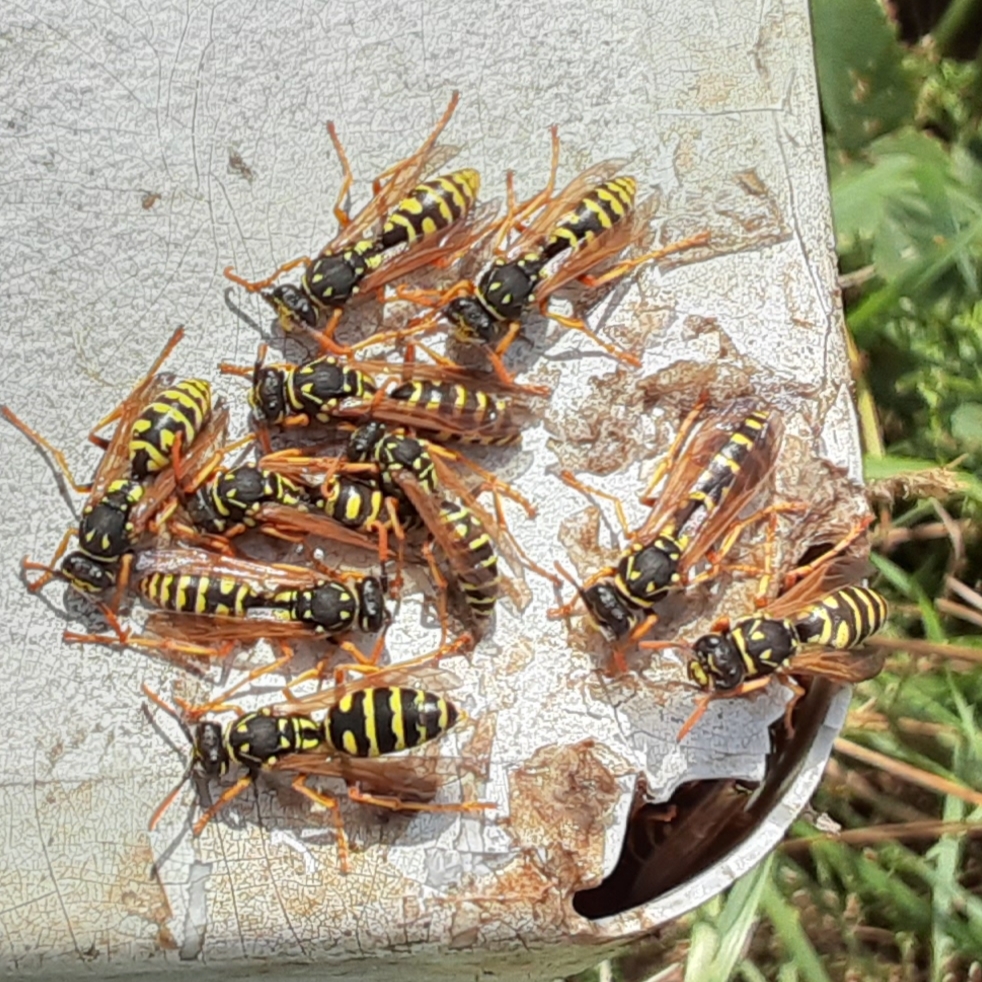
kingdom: Animalia
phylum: Arthropoda
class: Insecta
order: Hymenoptera
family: Eumenidae
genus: Polistes
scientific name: Polistes dominula
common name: Paper wasp
